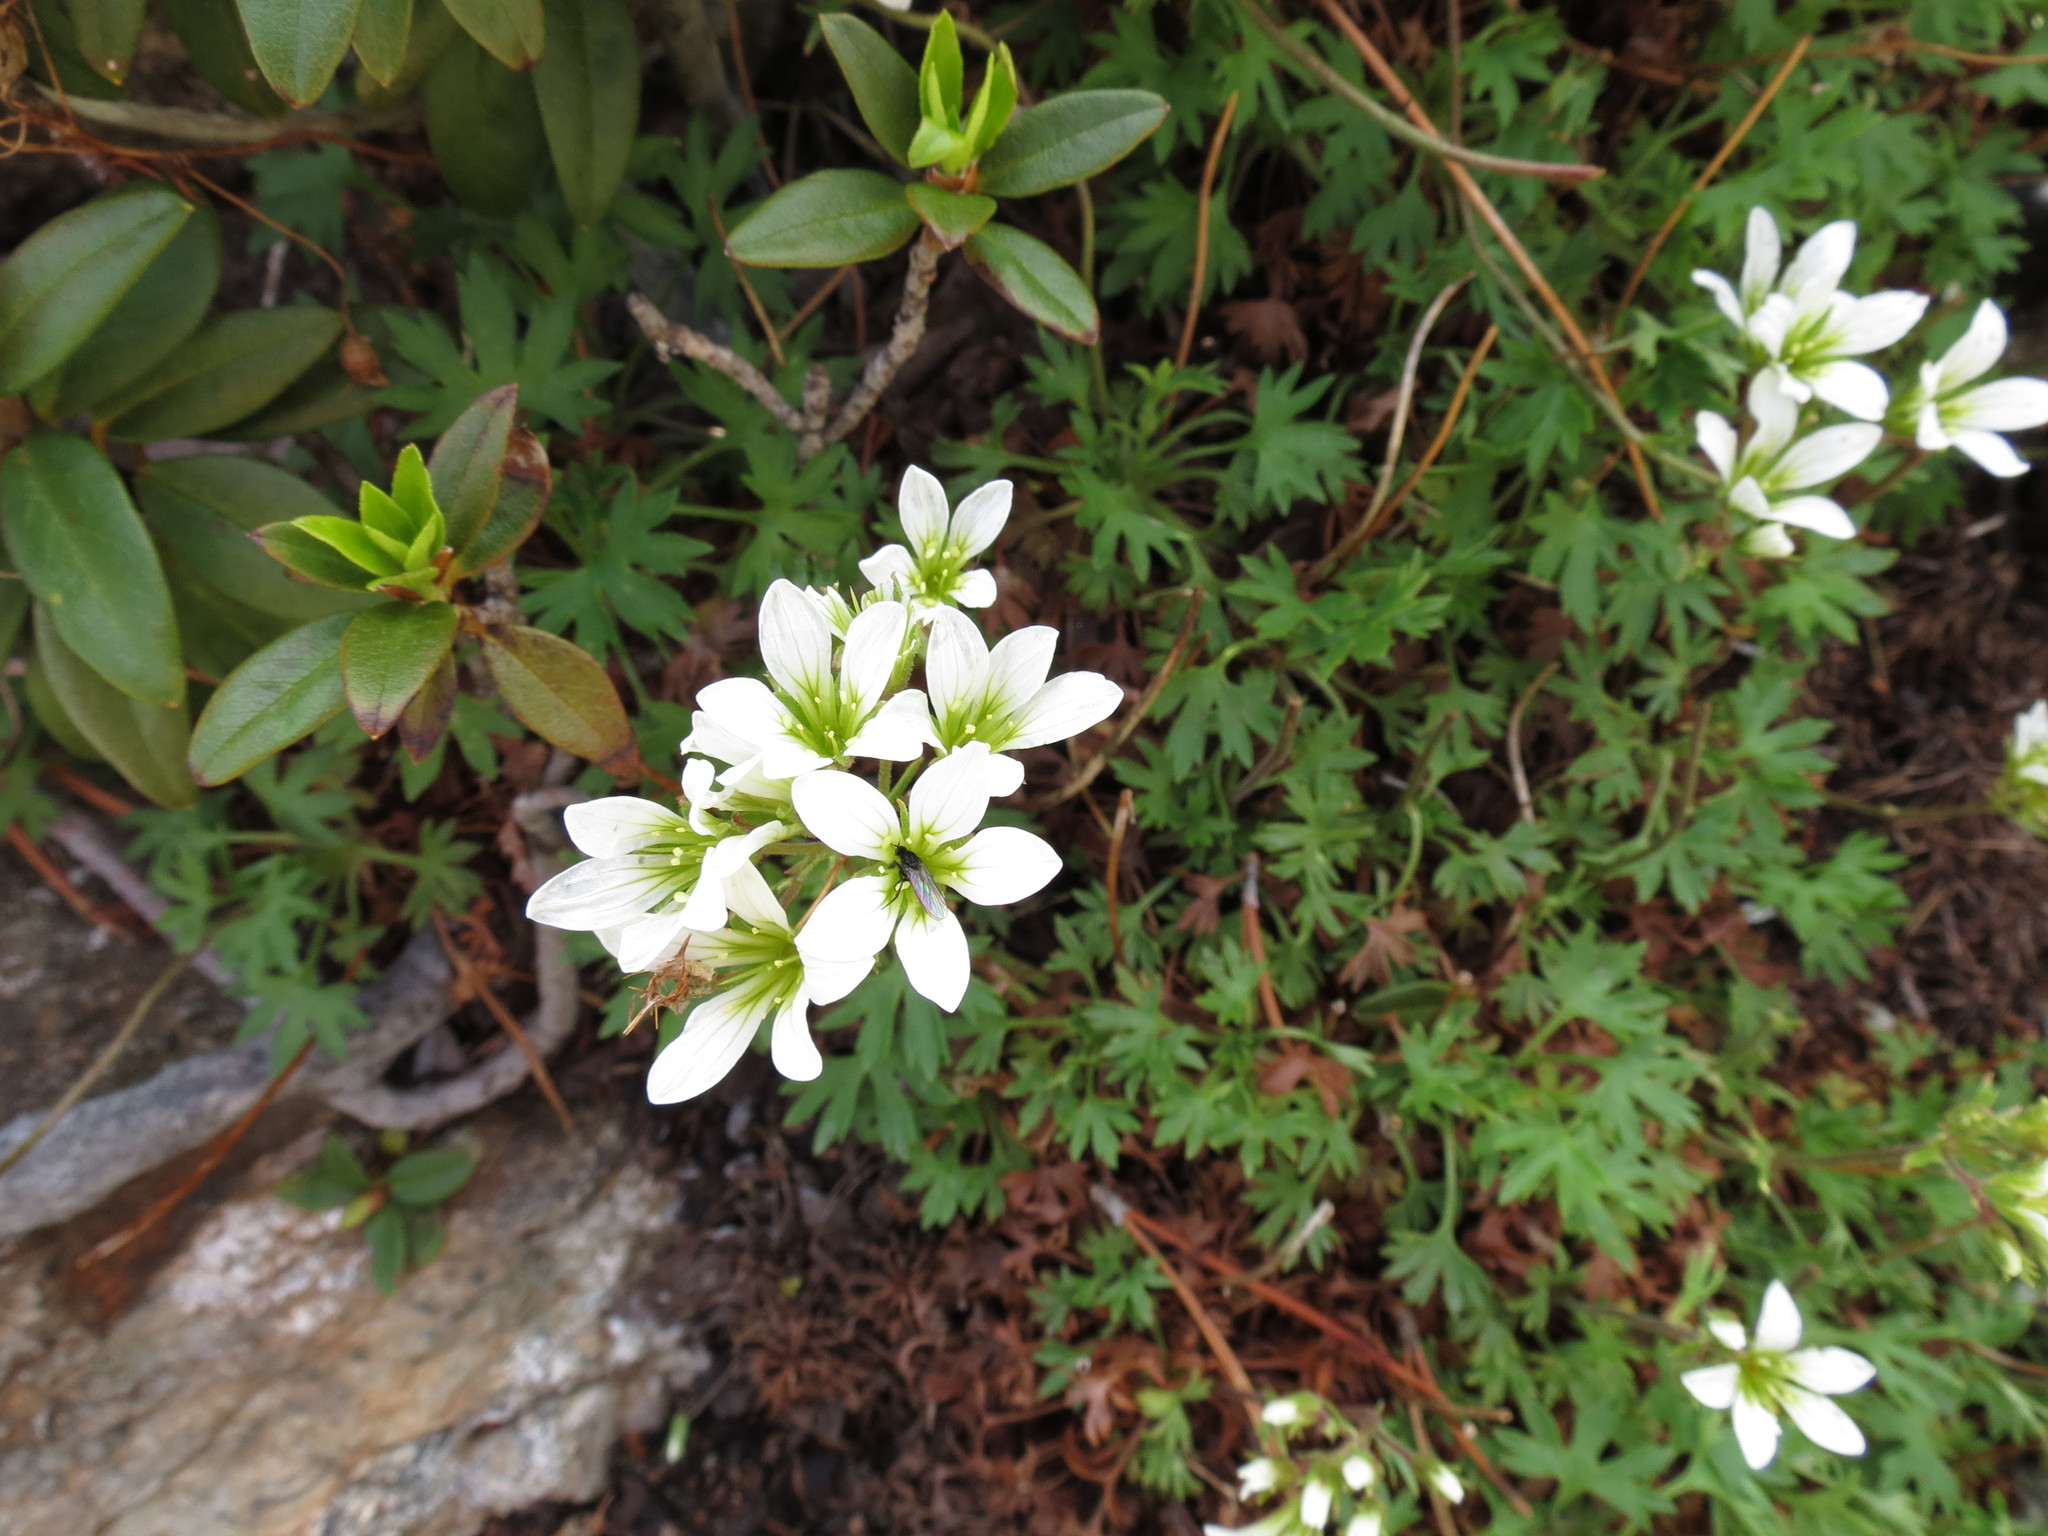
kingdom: Plantae
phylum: Tracheophyta
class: Magnoliopsida
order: Saxifragales
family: Saxifragaceae
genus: Saxifraga
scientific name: Saxifraga geranioides
